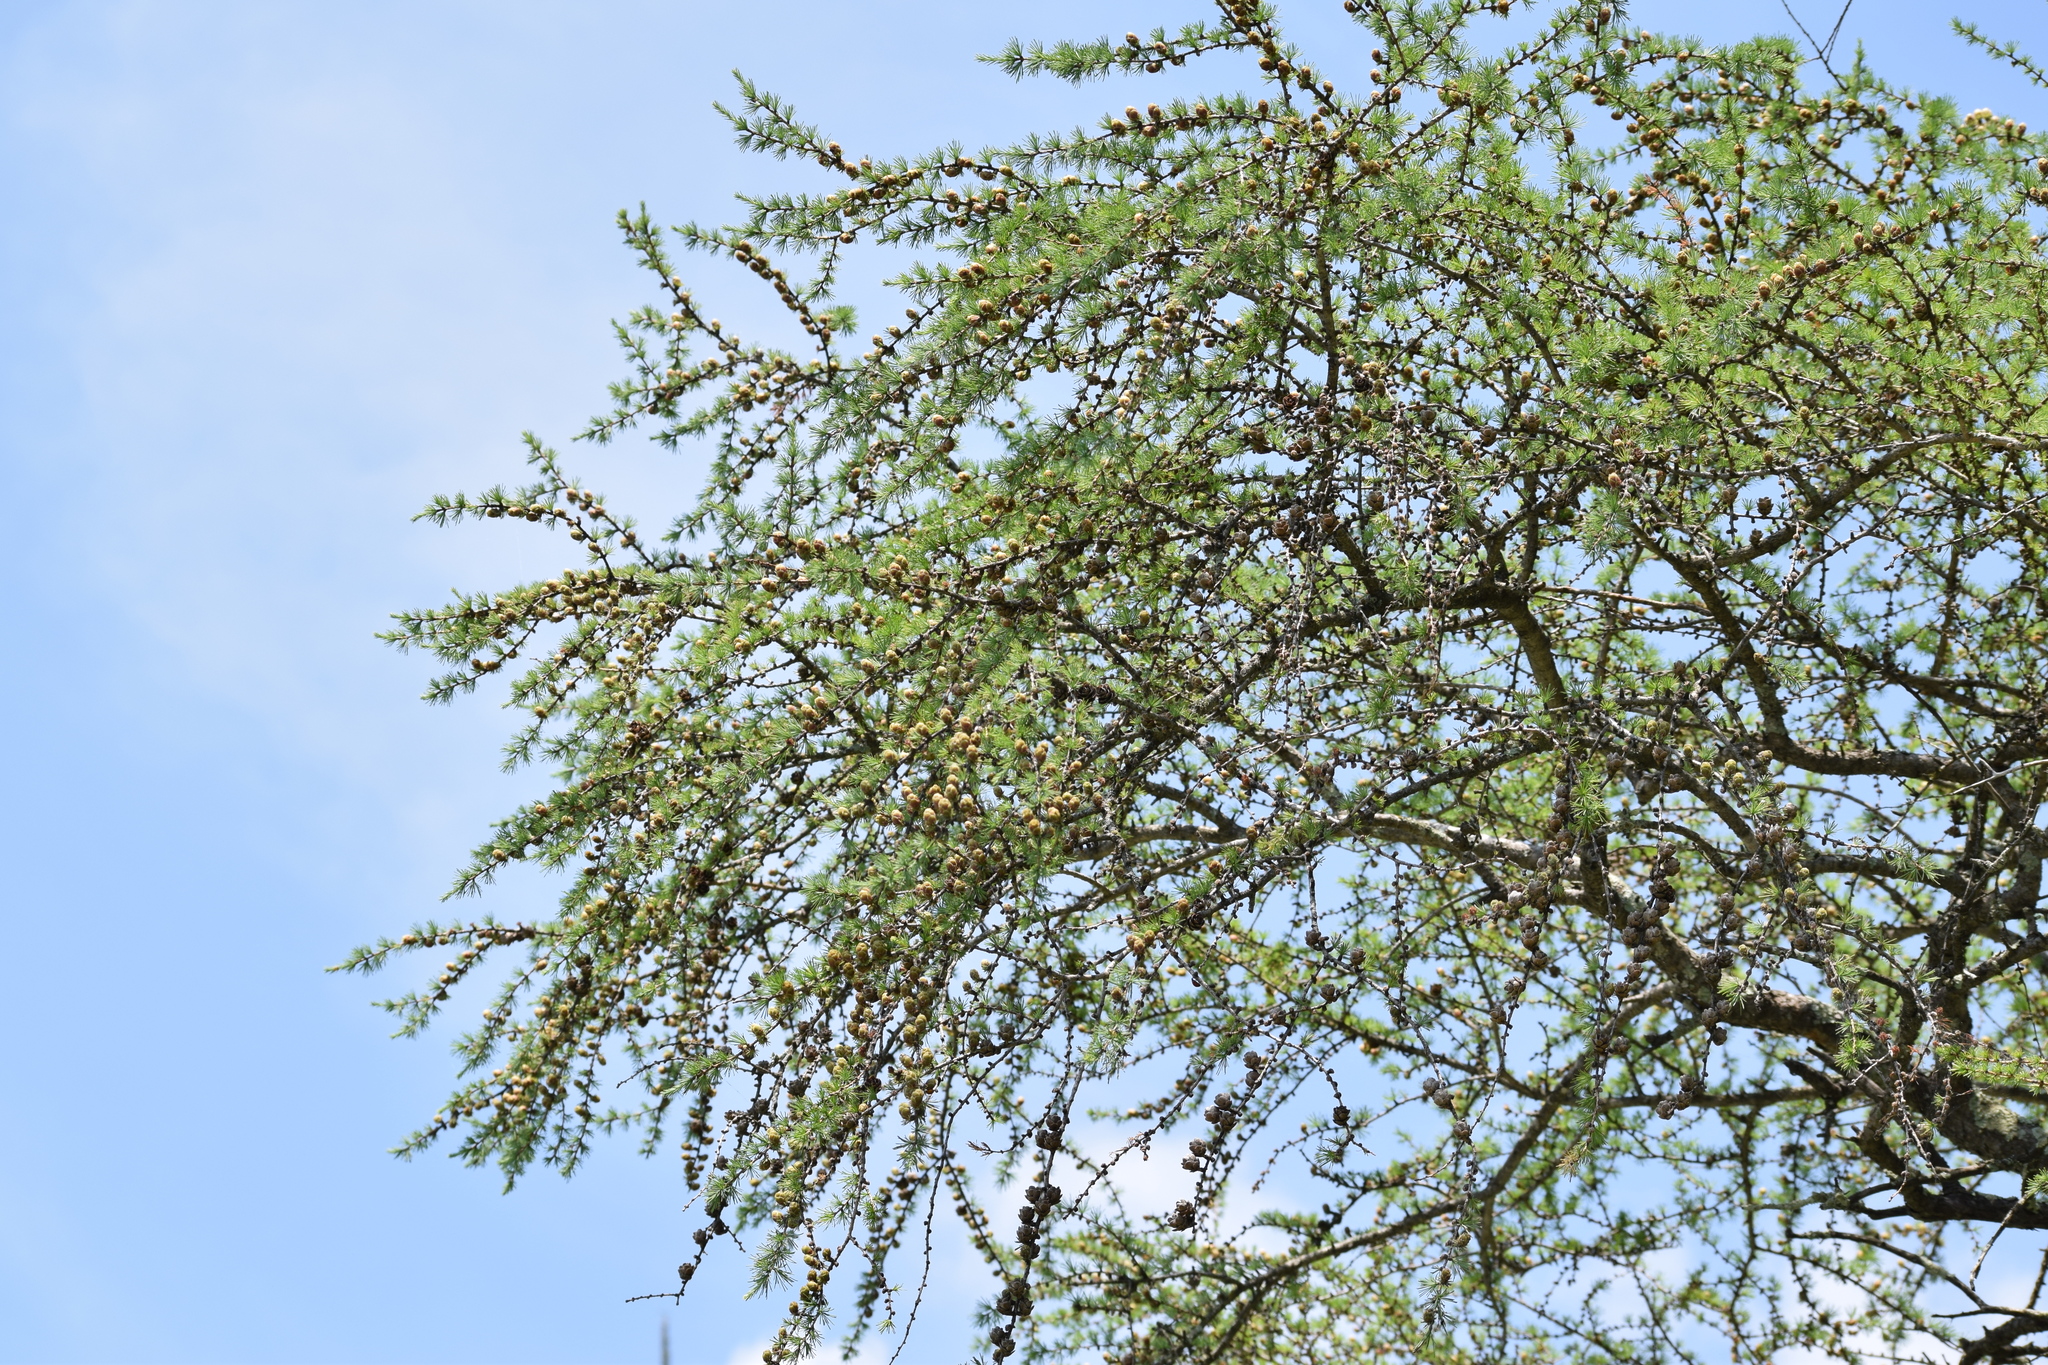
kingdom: Plantae
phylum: Tracheophyta
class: Pinopsida
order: Pinales
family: Pinaceae
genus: Larix
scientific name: Larix laricina
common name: American larch
